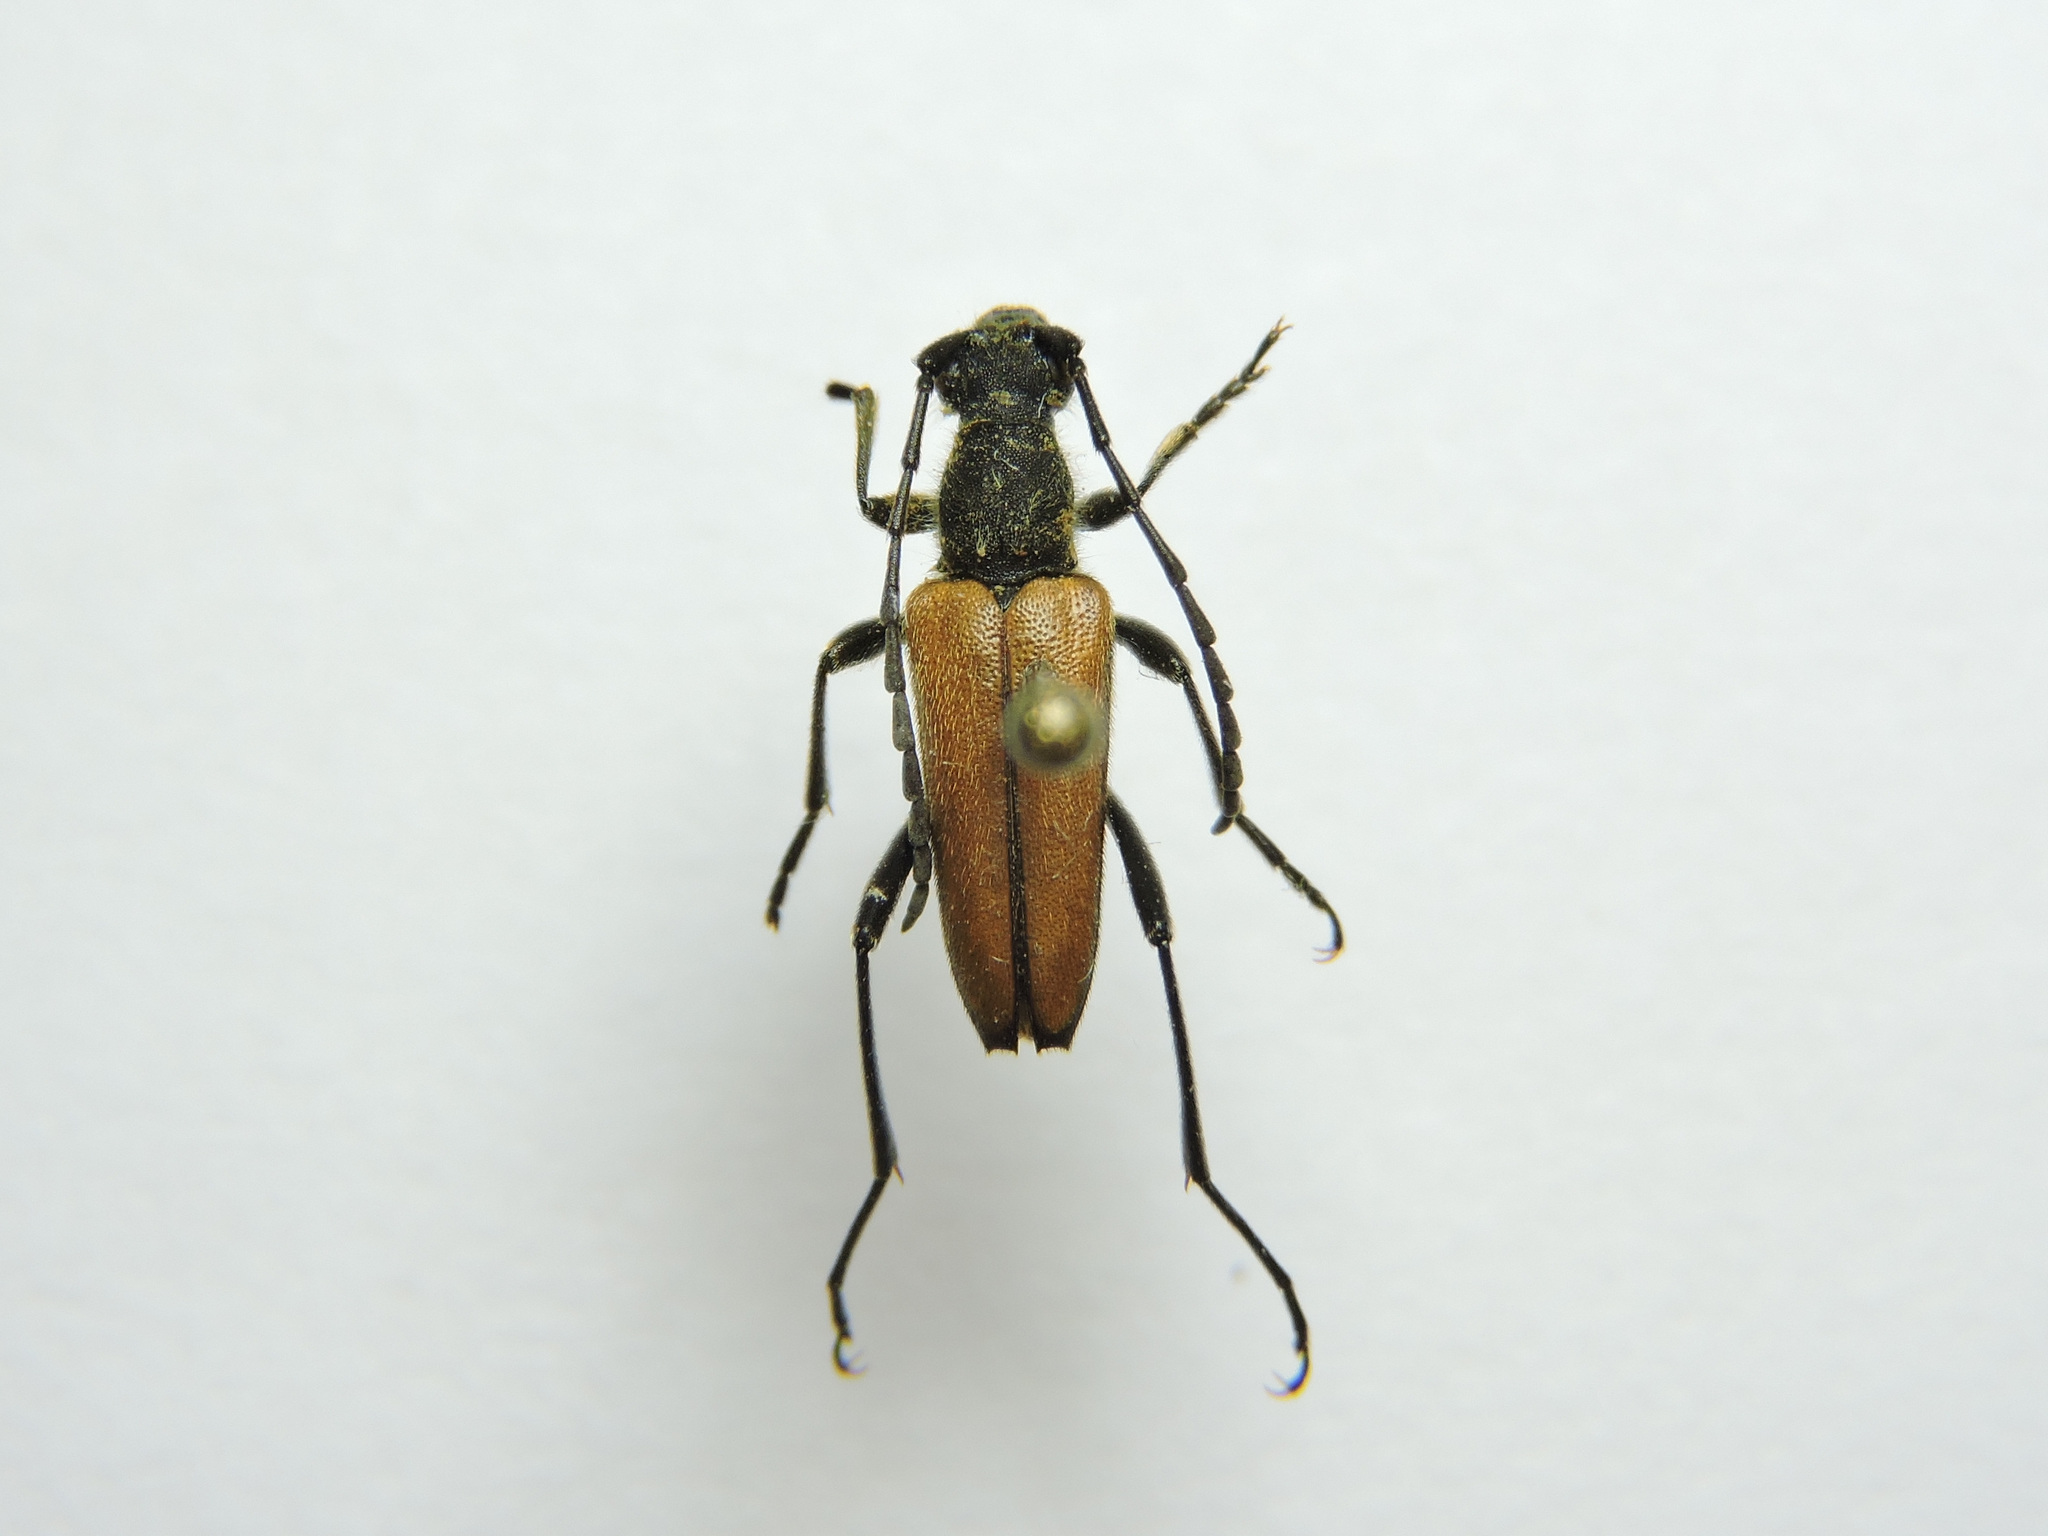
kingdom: Animalia
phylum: Arthropoda
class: Insecta
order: Coleoptera
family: Cerambycidae
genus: Anastrangalia
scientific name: Anastrangalia reyi
